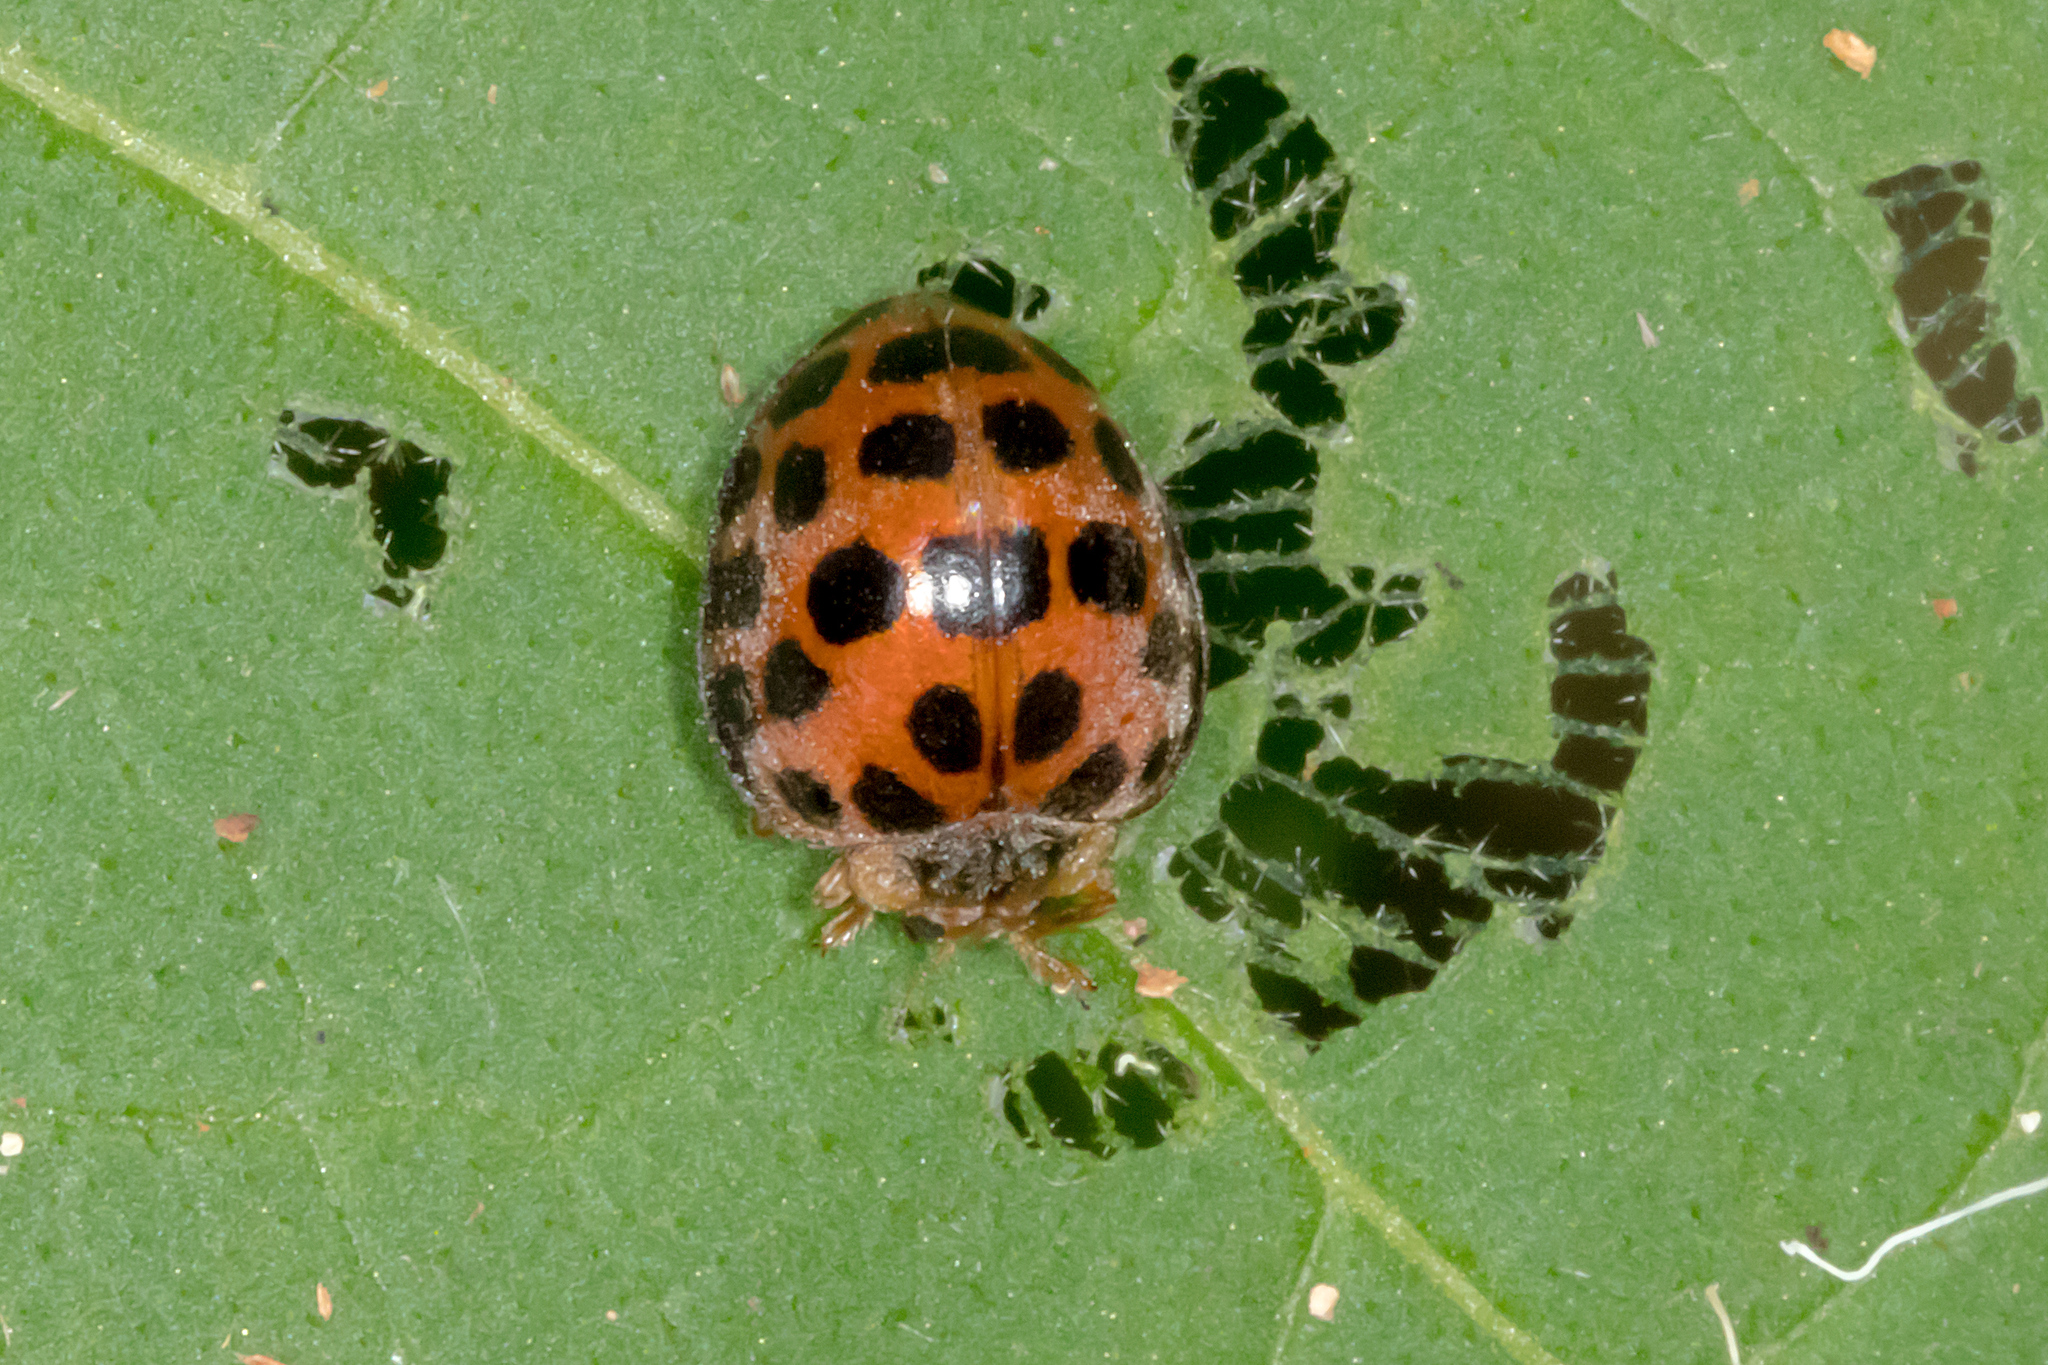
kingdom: Animalia
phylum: Arthropoda
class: Insecta
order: Coleoptera
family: Coccinellidae
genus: Henosepilachna
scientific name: Henosepilachna vigintisexpunctata
